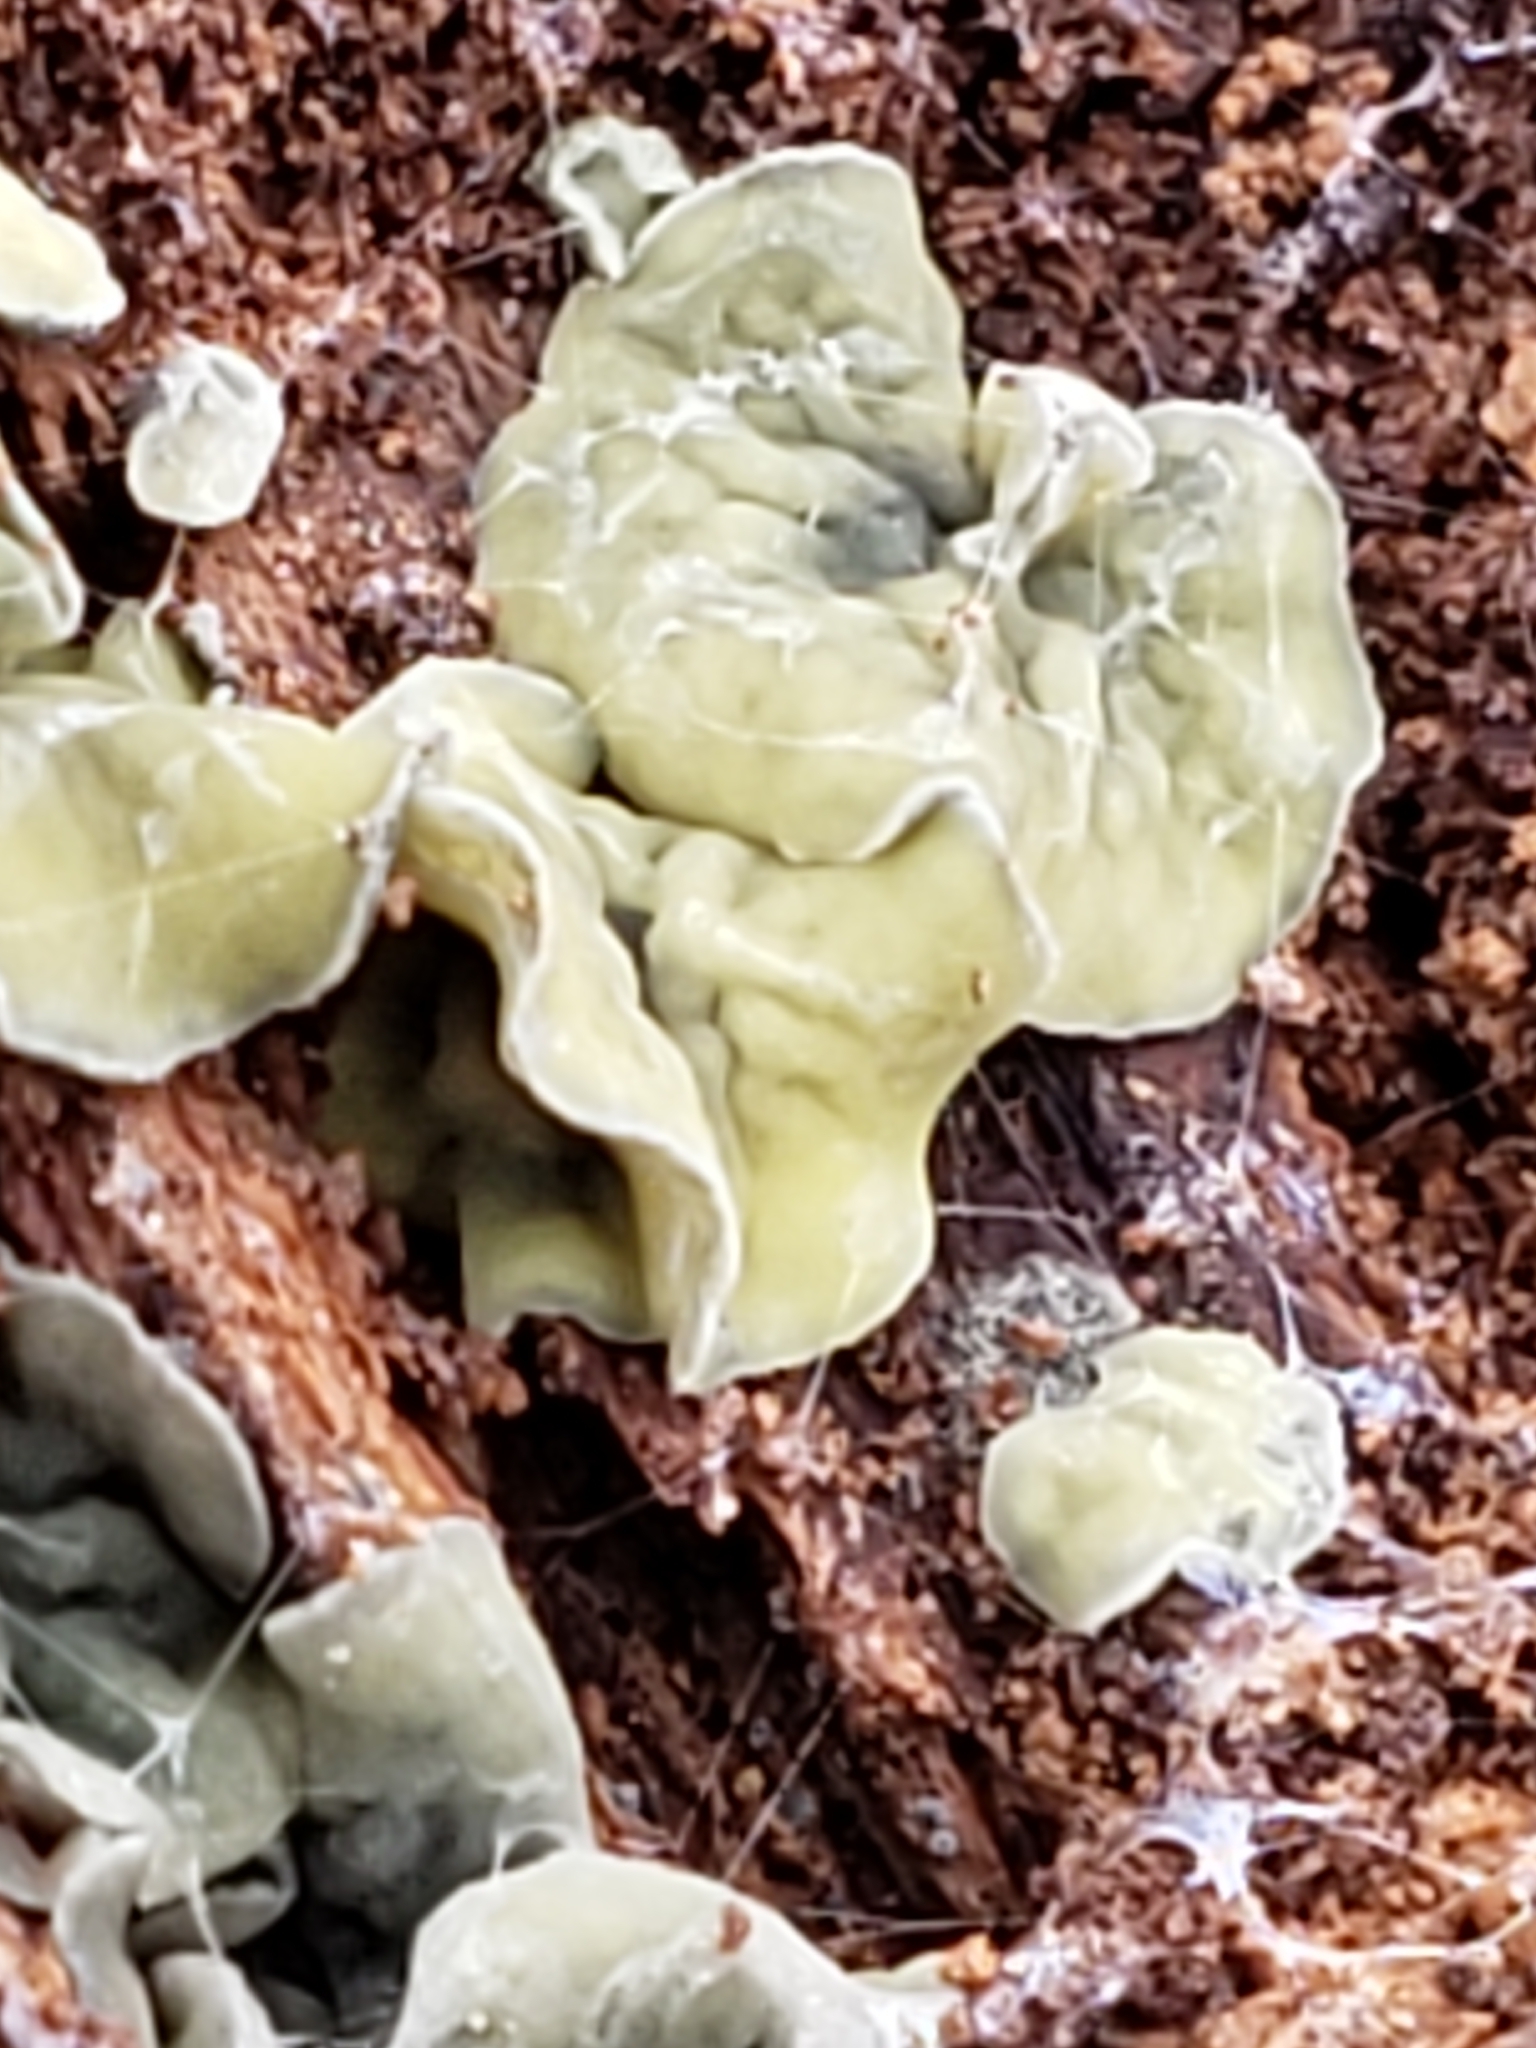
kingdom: Fungi
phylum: Ascomycota
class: Leotiomycetes
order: Helotiales
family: Chlorospleniaceae
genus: Chlorosplenium
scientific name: Chlorosplenium chlora
